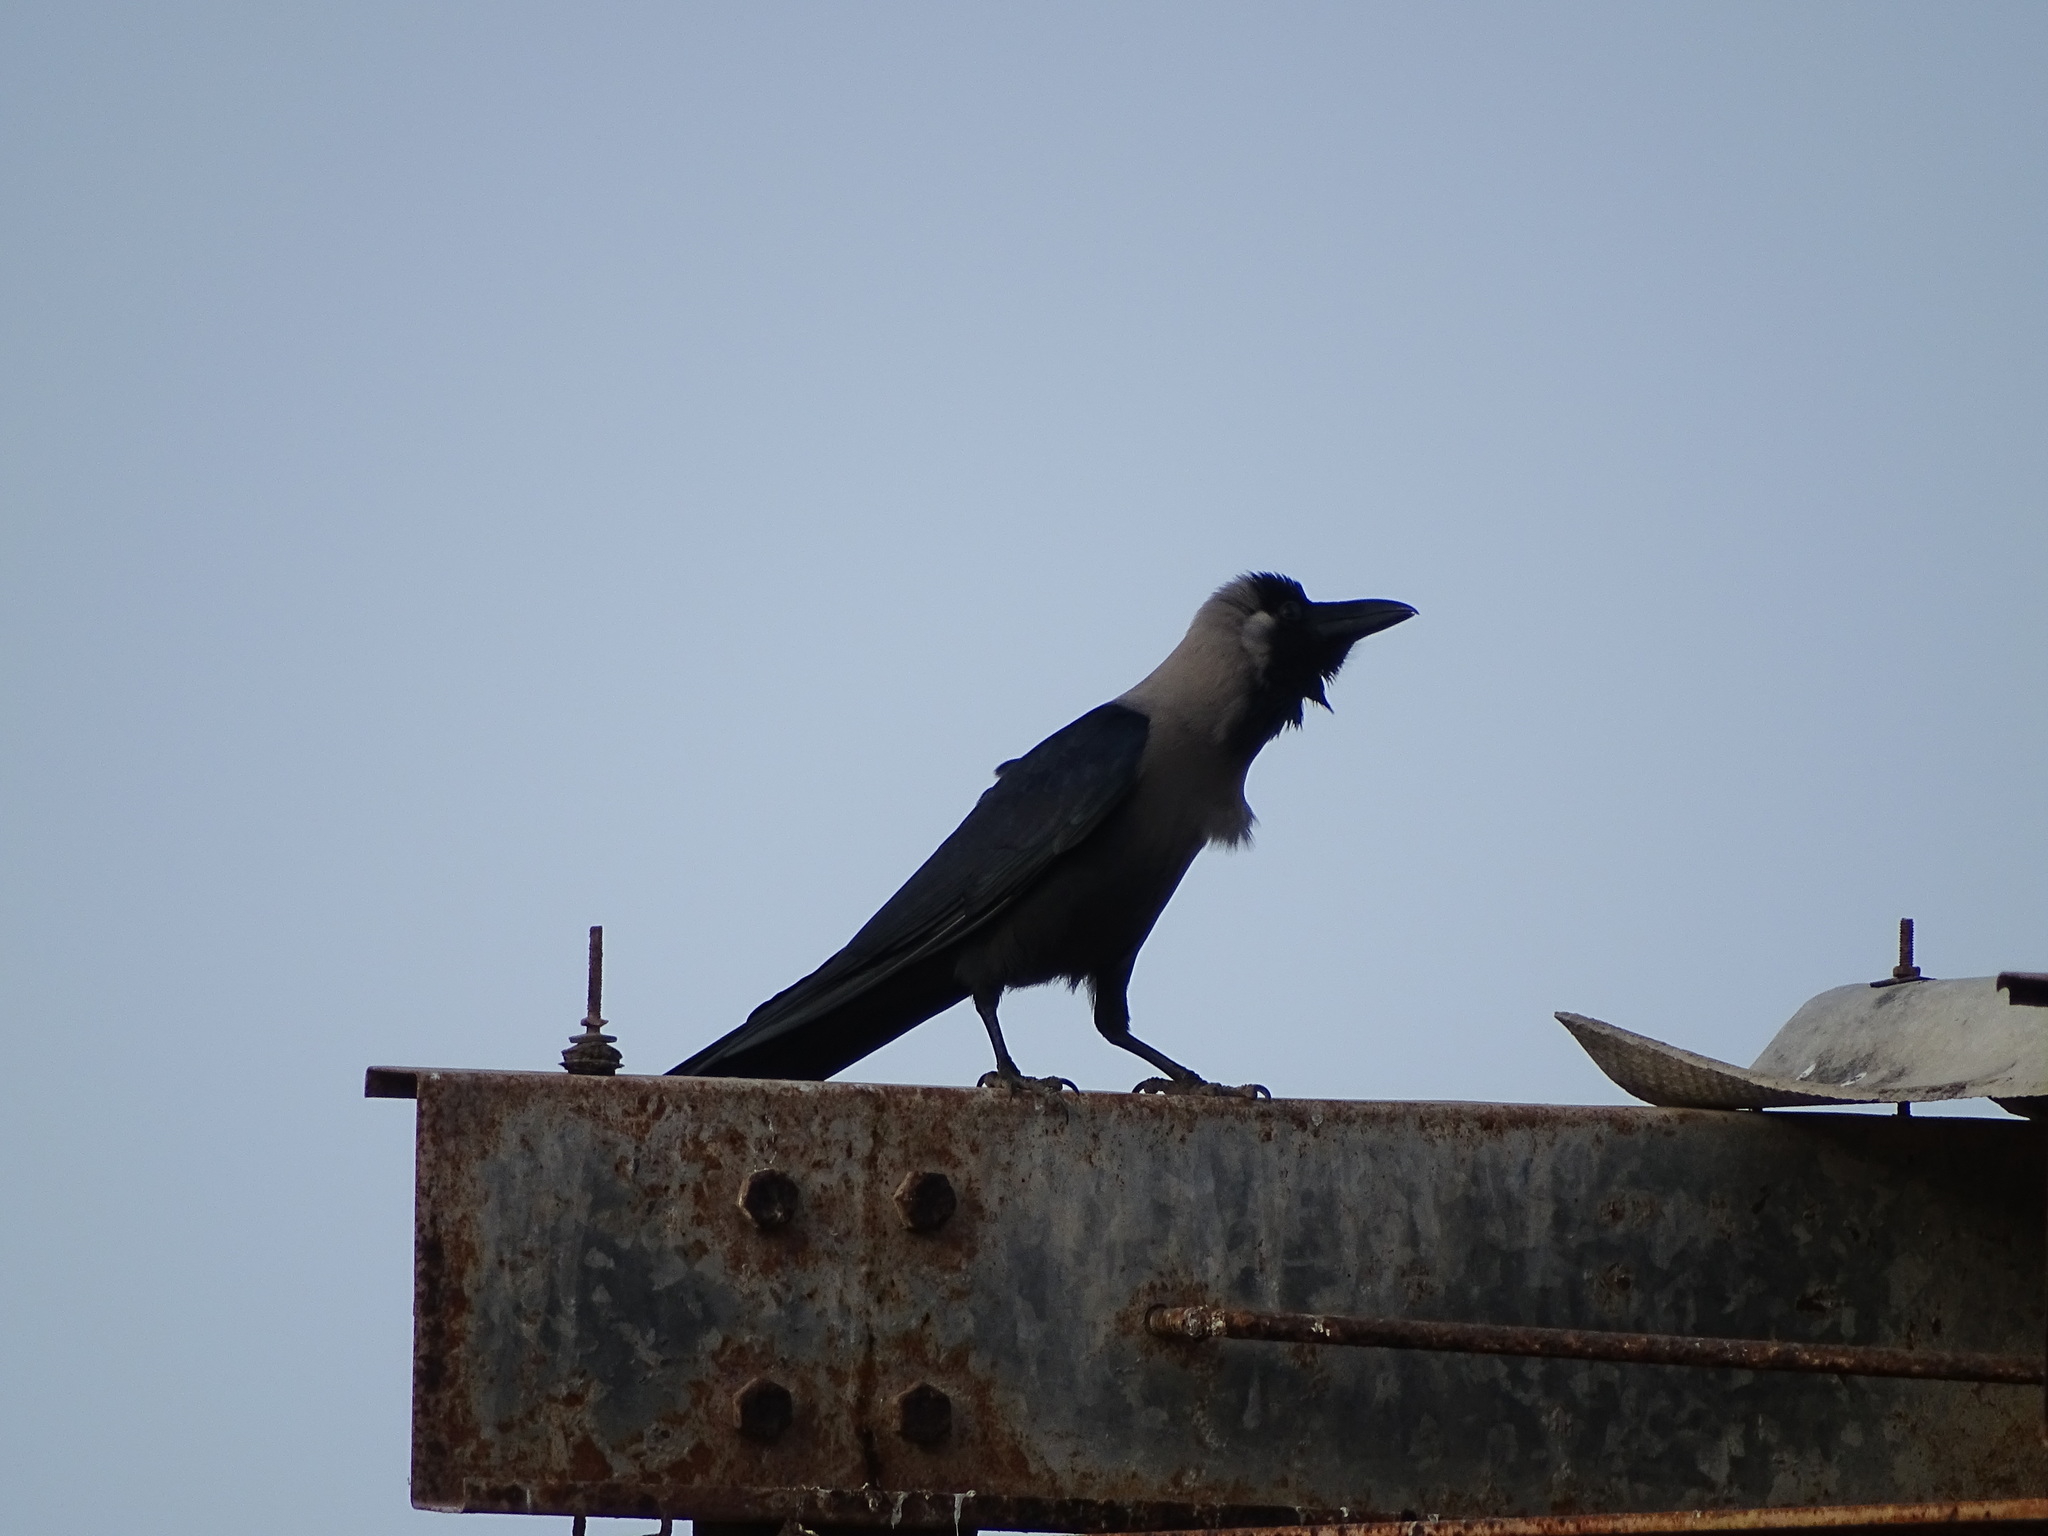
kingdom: Animalia
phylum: Chordata
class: Aves
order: Passeriformes
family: Corvidae
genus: Corvus
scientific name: Corvus splendens
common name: House crow
